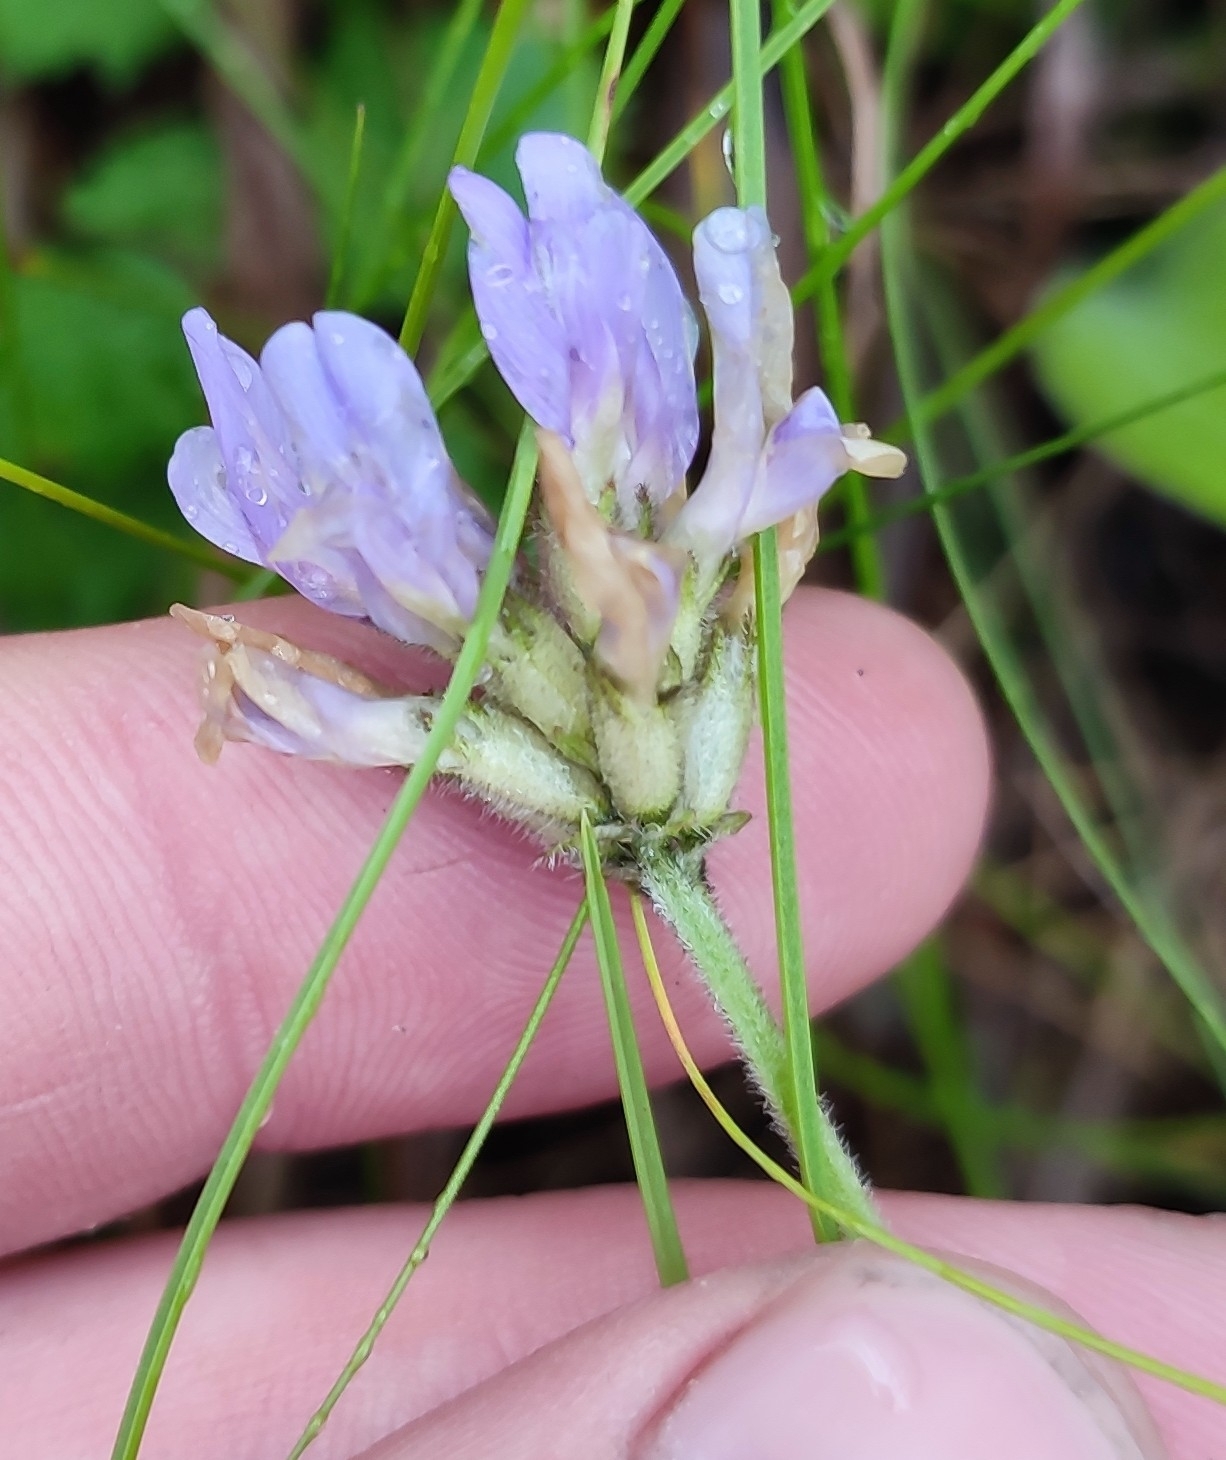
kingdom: Plantae
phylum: Tracheophyta
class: Magnoliopsida
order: Fabales
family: Fabaceae
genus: Astragalus
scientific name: Astragalus danicus
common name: Purple milk-vetch
